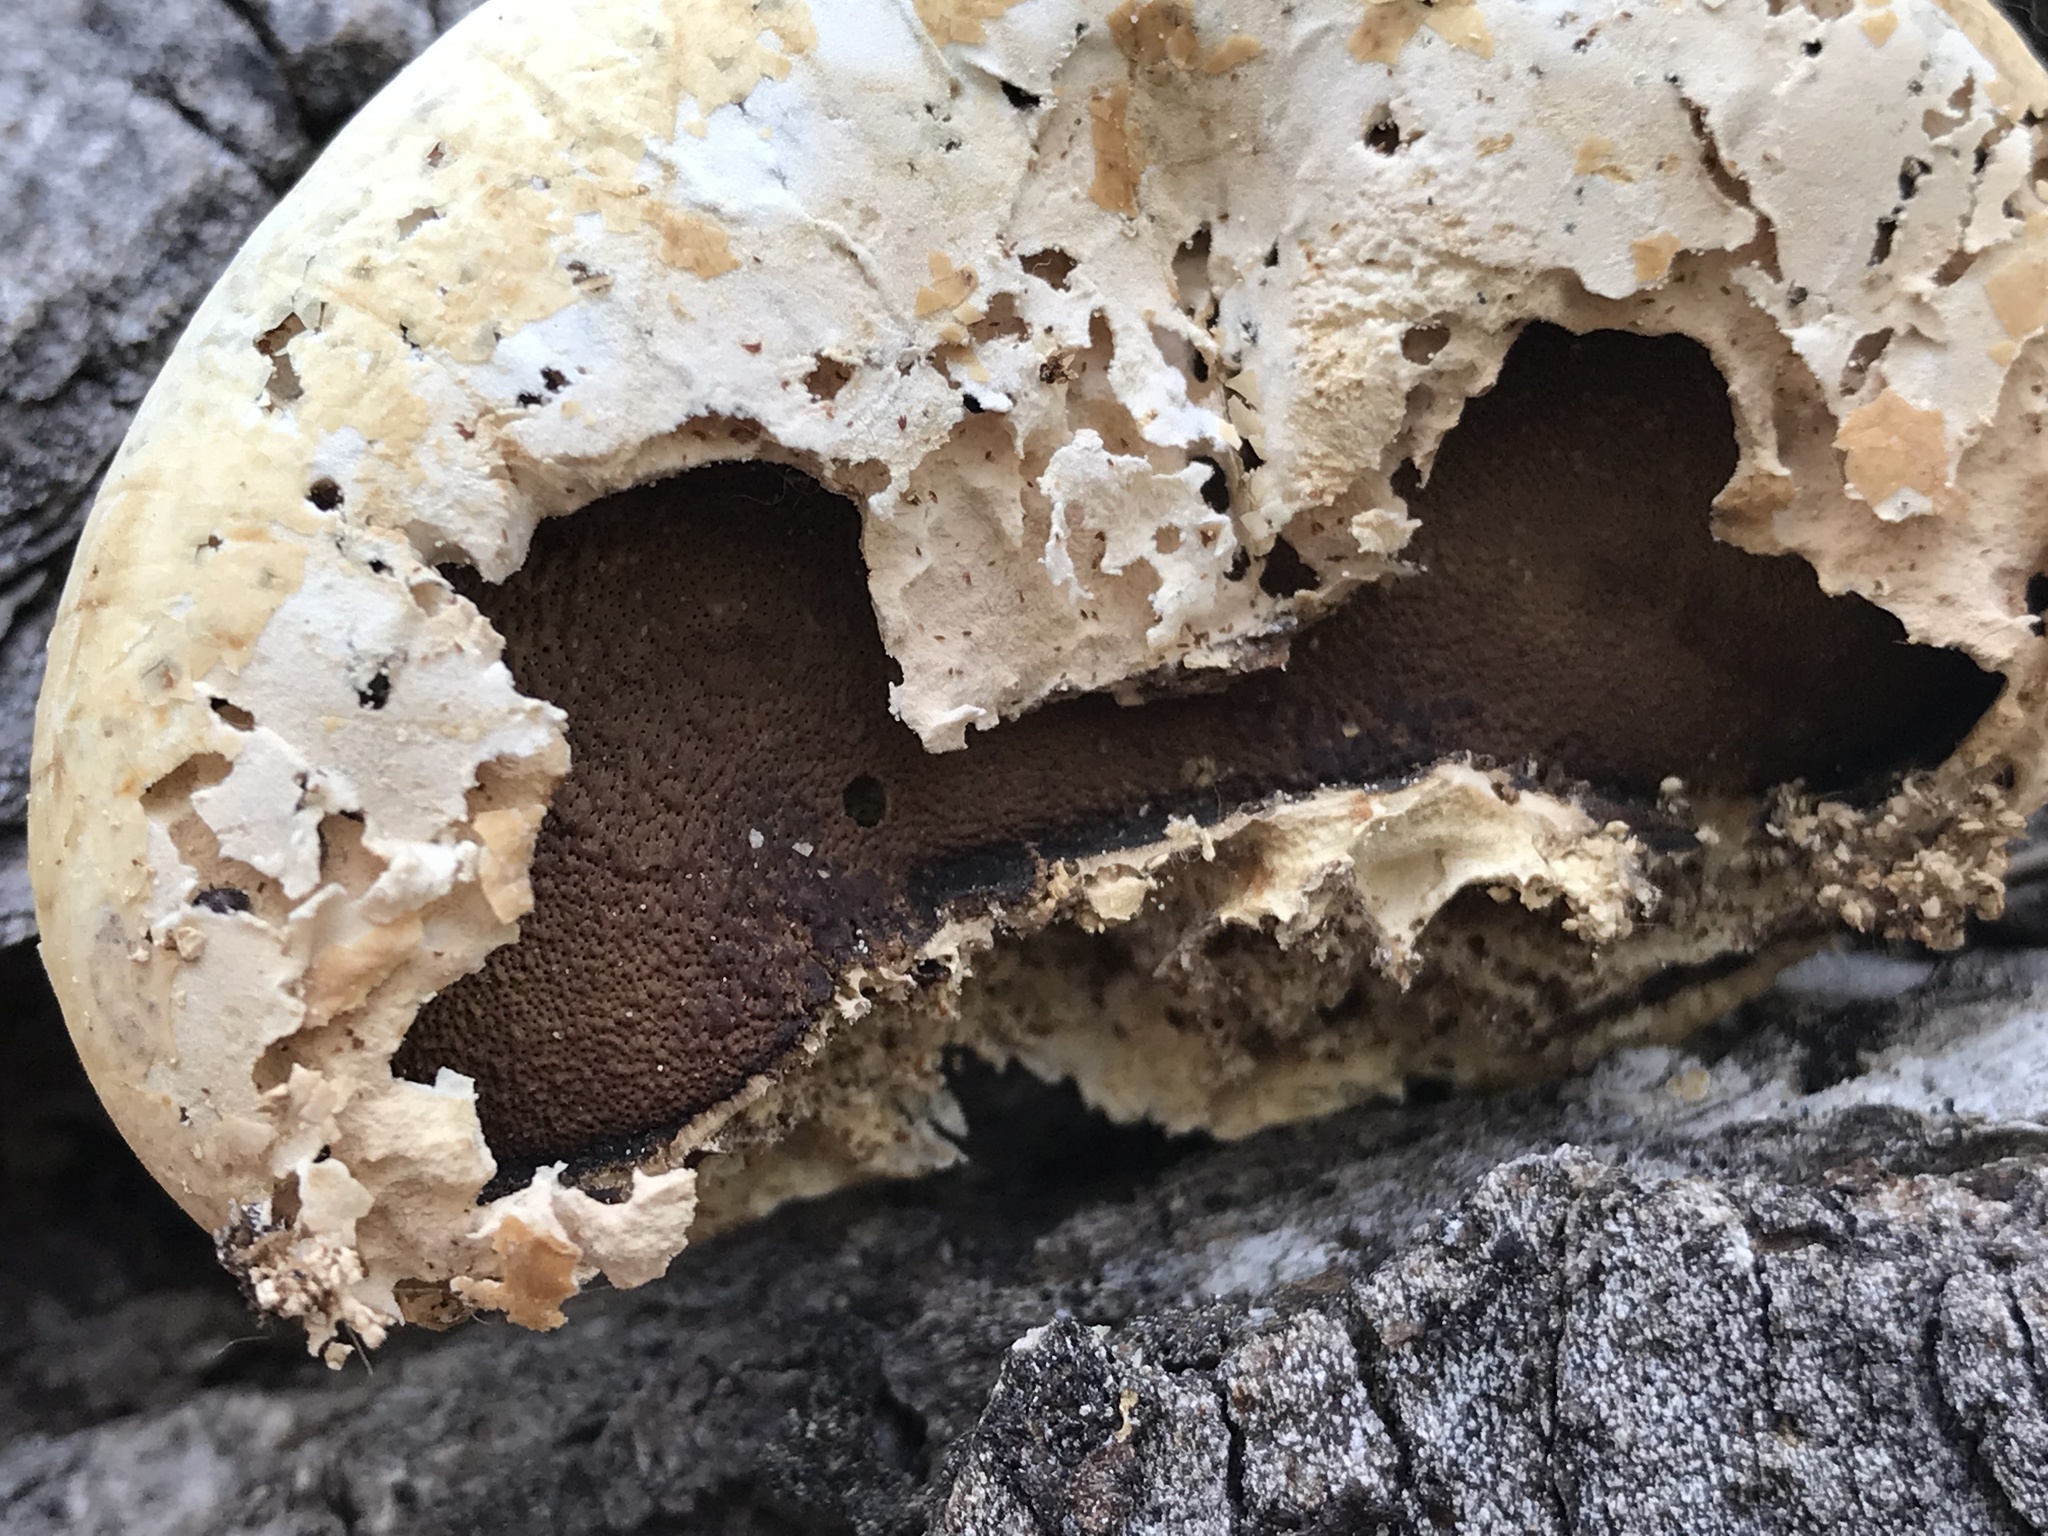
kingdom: Fungi
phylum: Basidiomycota
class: Agaricomycetes
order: Polyporales
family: Polyporaceae
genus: Cryptoporus
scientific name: Cryptoporus volvatus
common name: Veiled polypore
